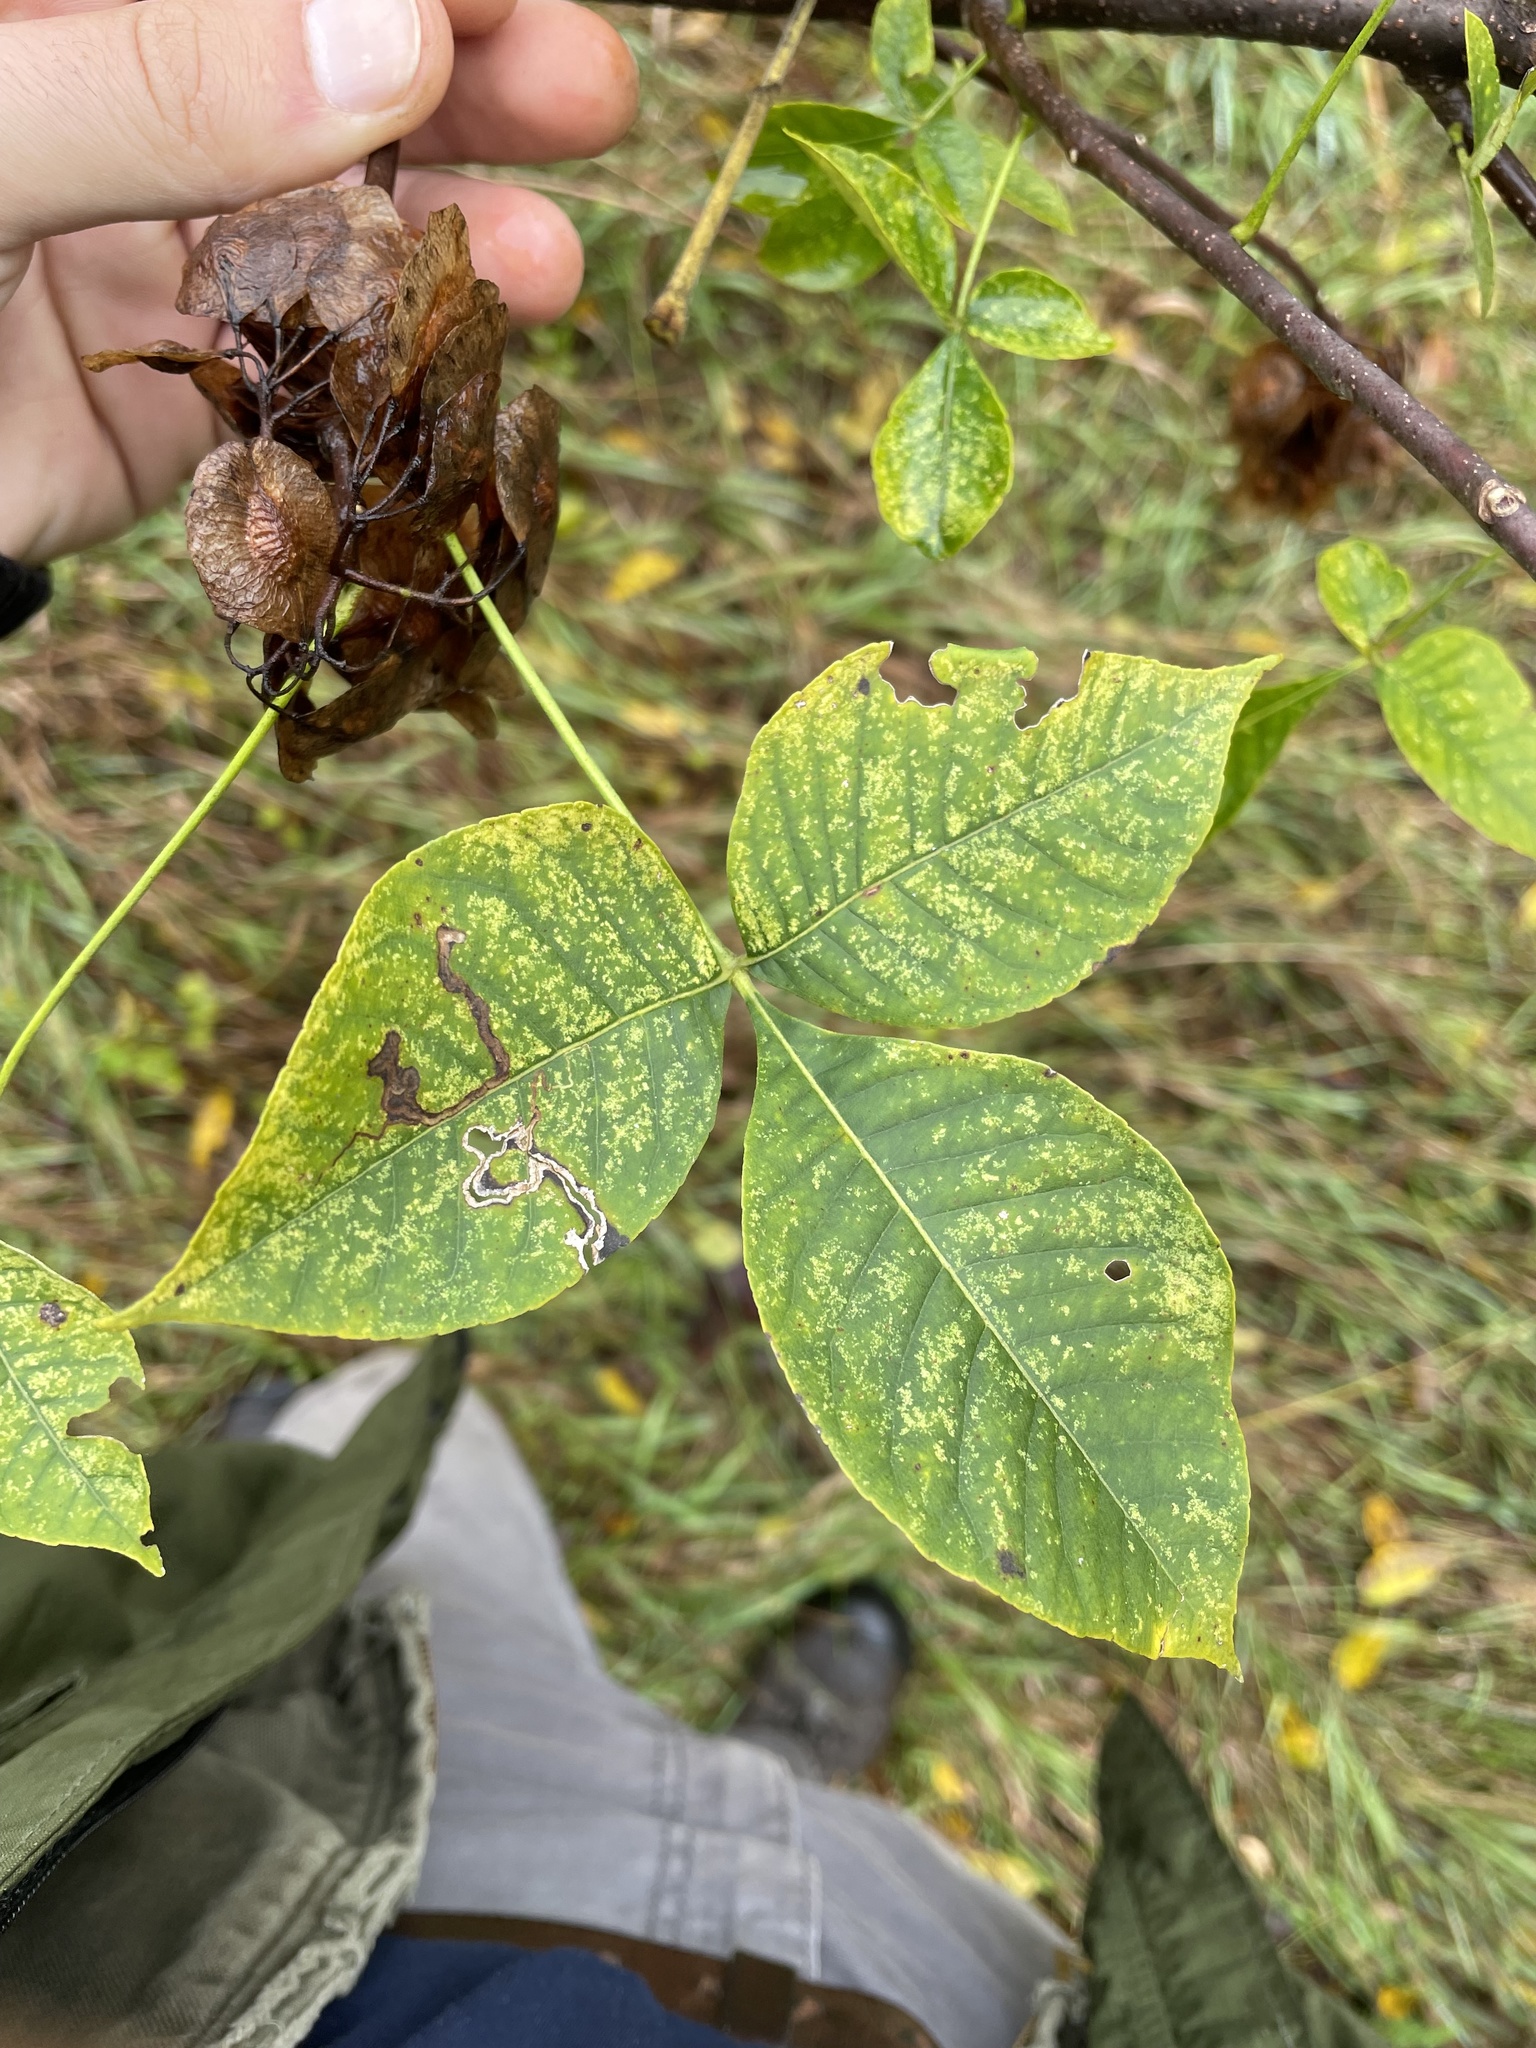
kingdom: Plantae
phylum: Tracheophyta
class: Magnoliopsida
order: Sapindales
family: Rutaceae
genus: Ptelea
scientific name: Ptelea trifoliata
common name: Common hop-tree
